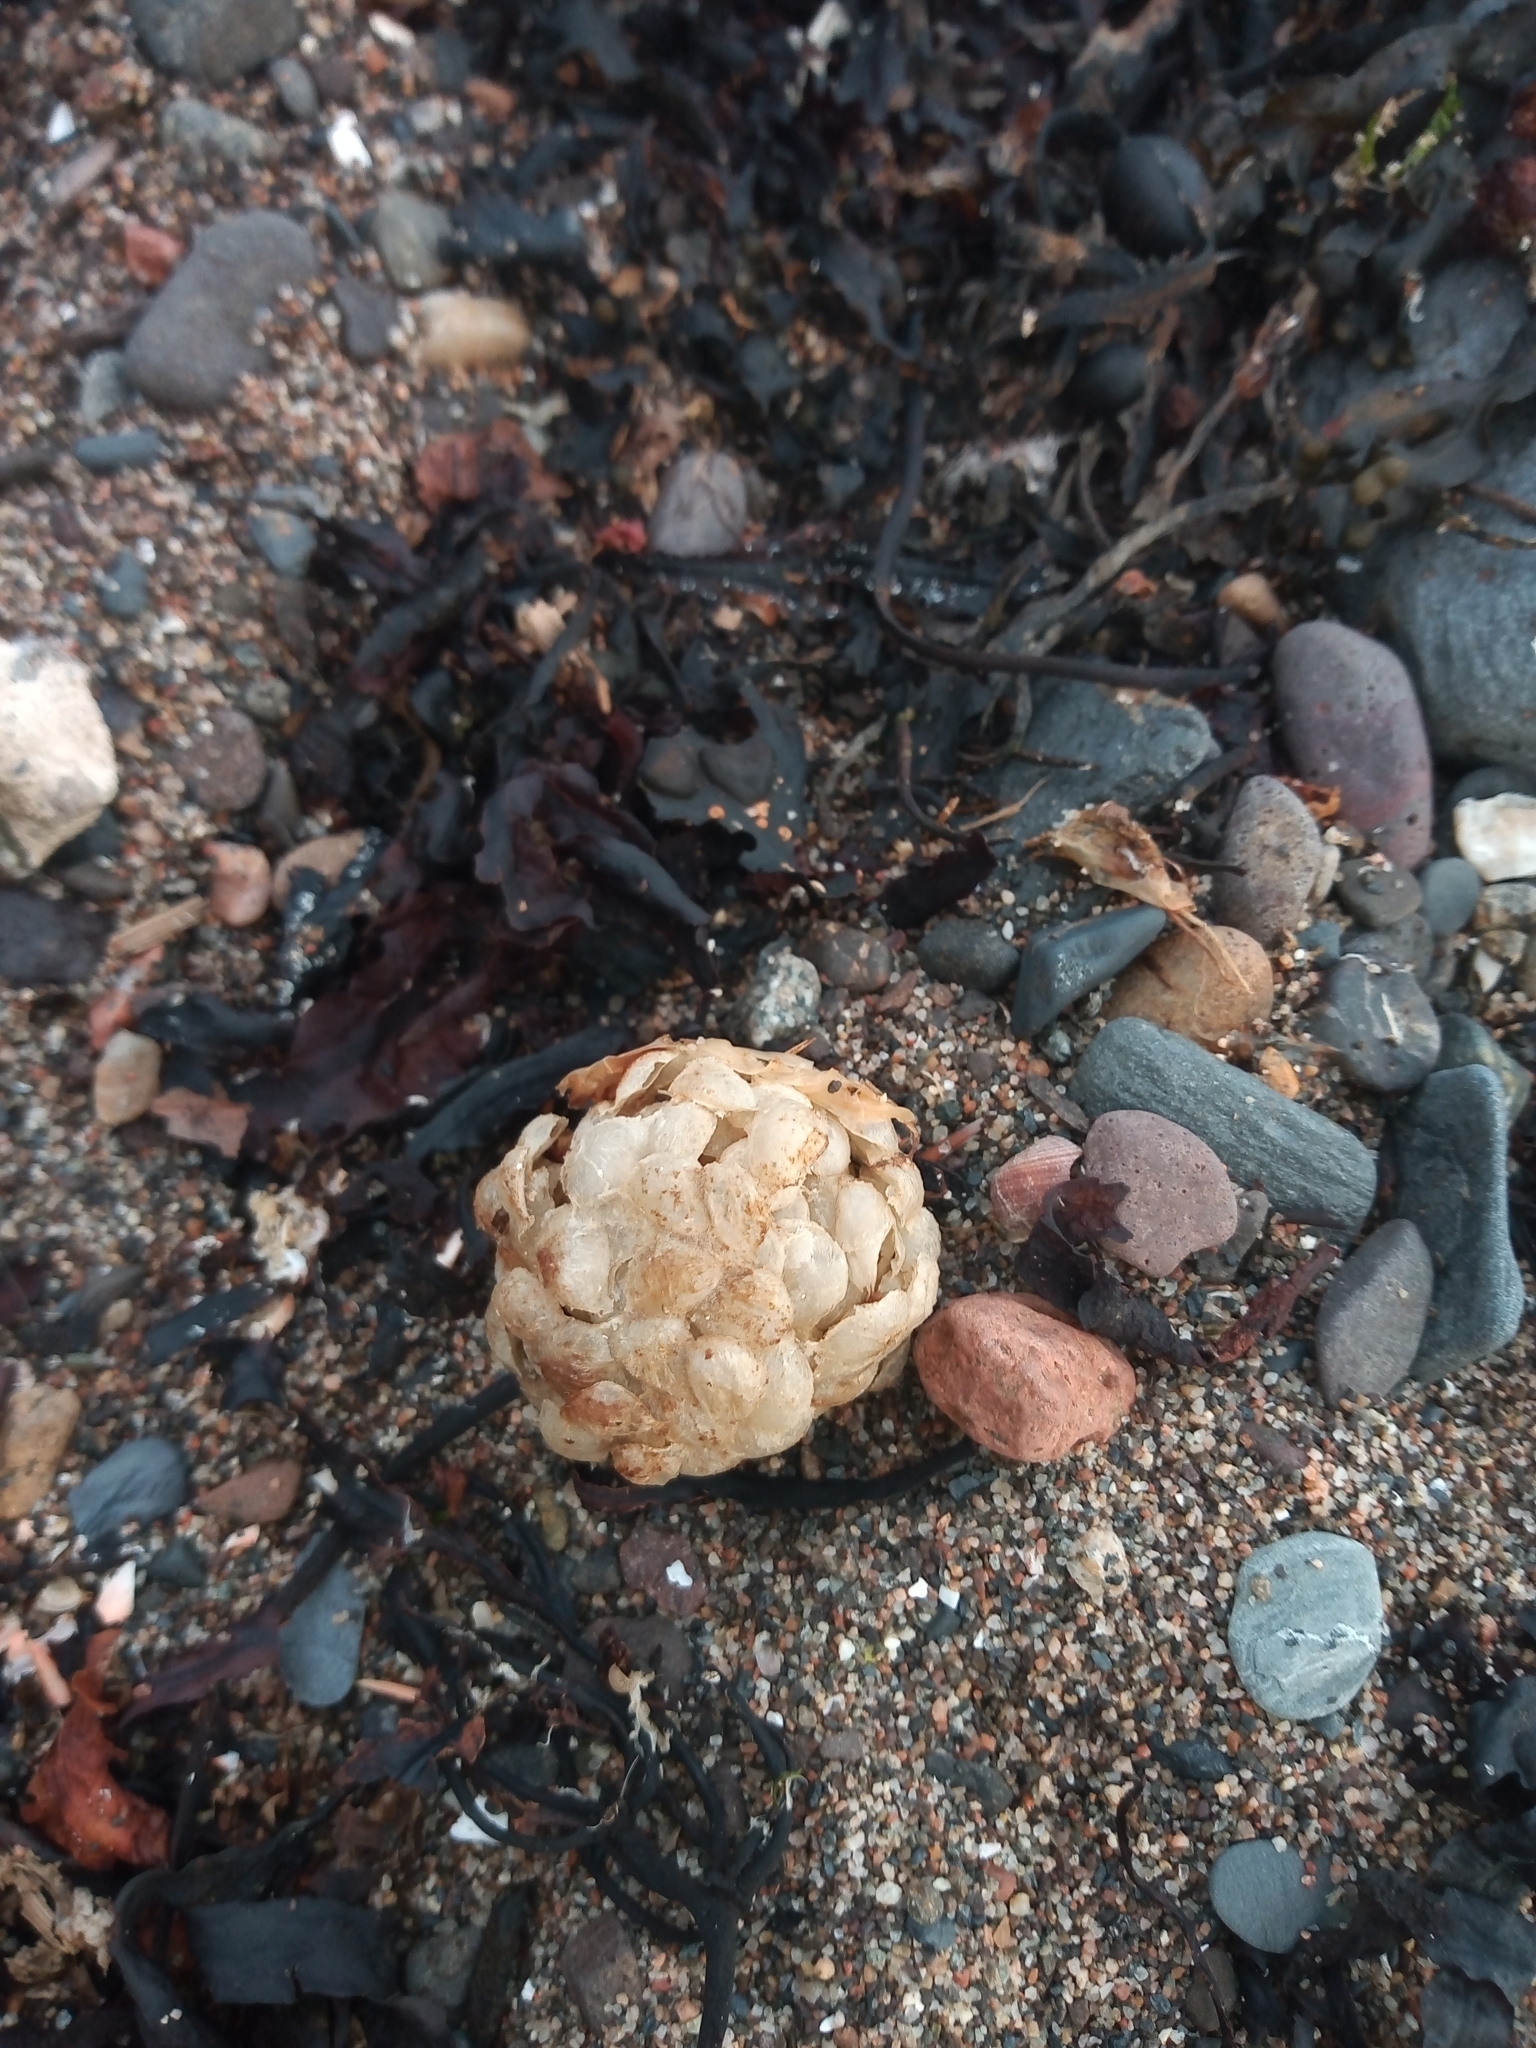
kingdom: Animalia
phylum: Mollusca
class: Gastropoda
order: Neogastropoda
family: Buccinidae
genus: Buccinum
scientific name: Buccinum undatum
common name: Common whelk
